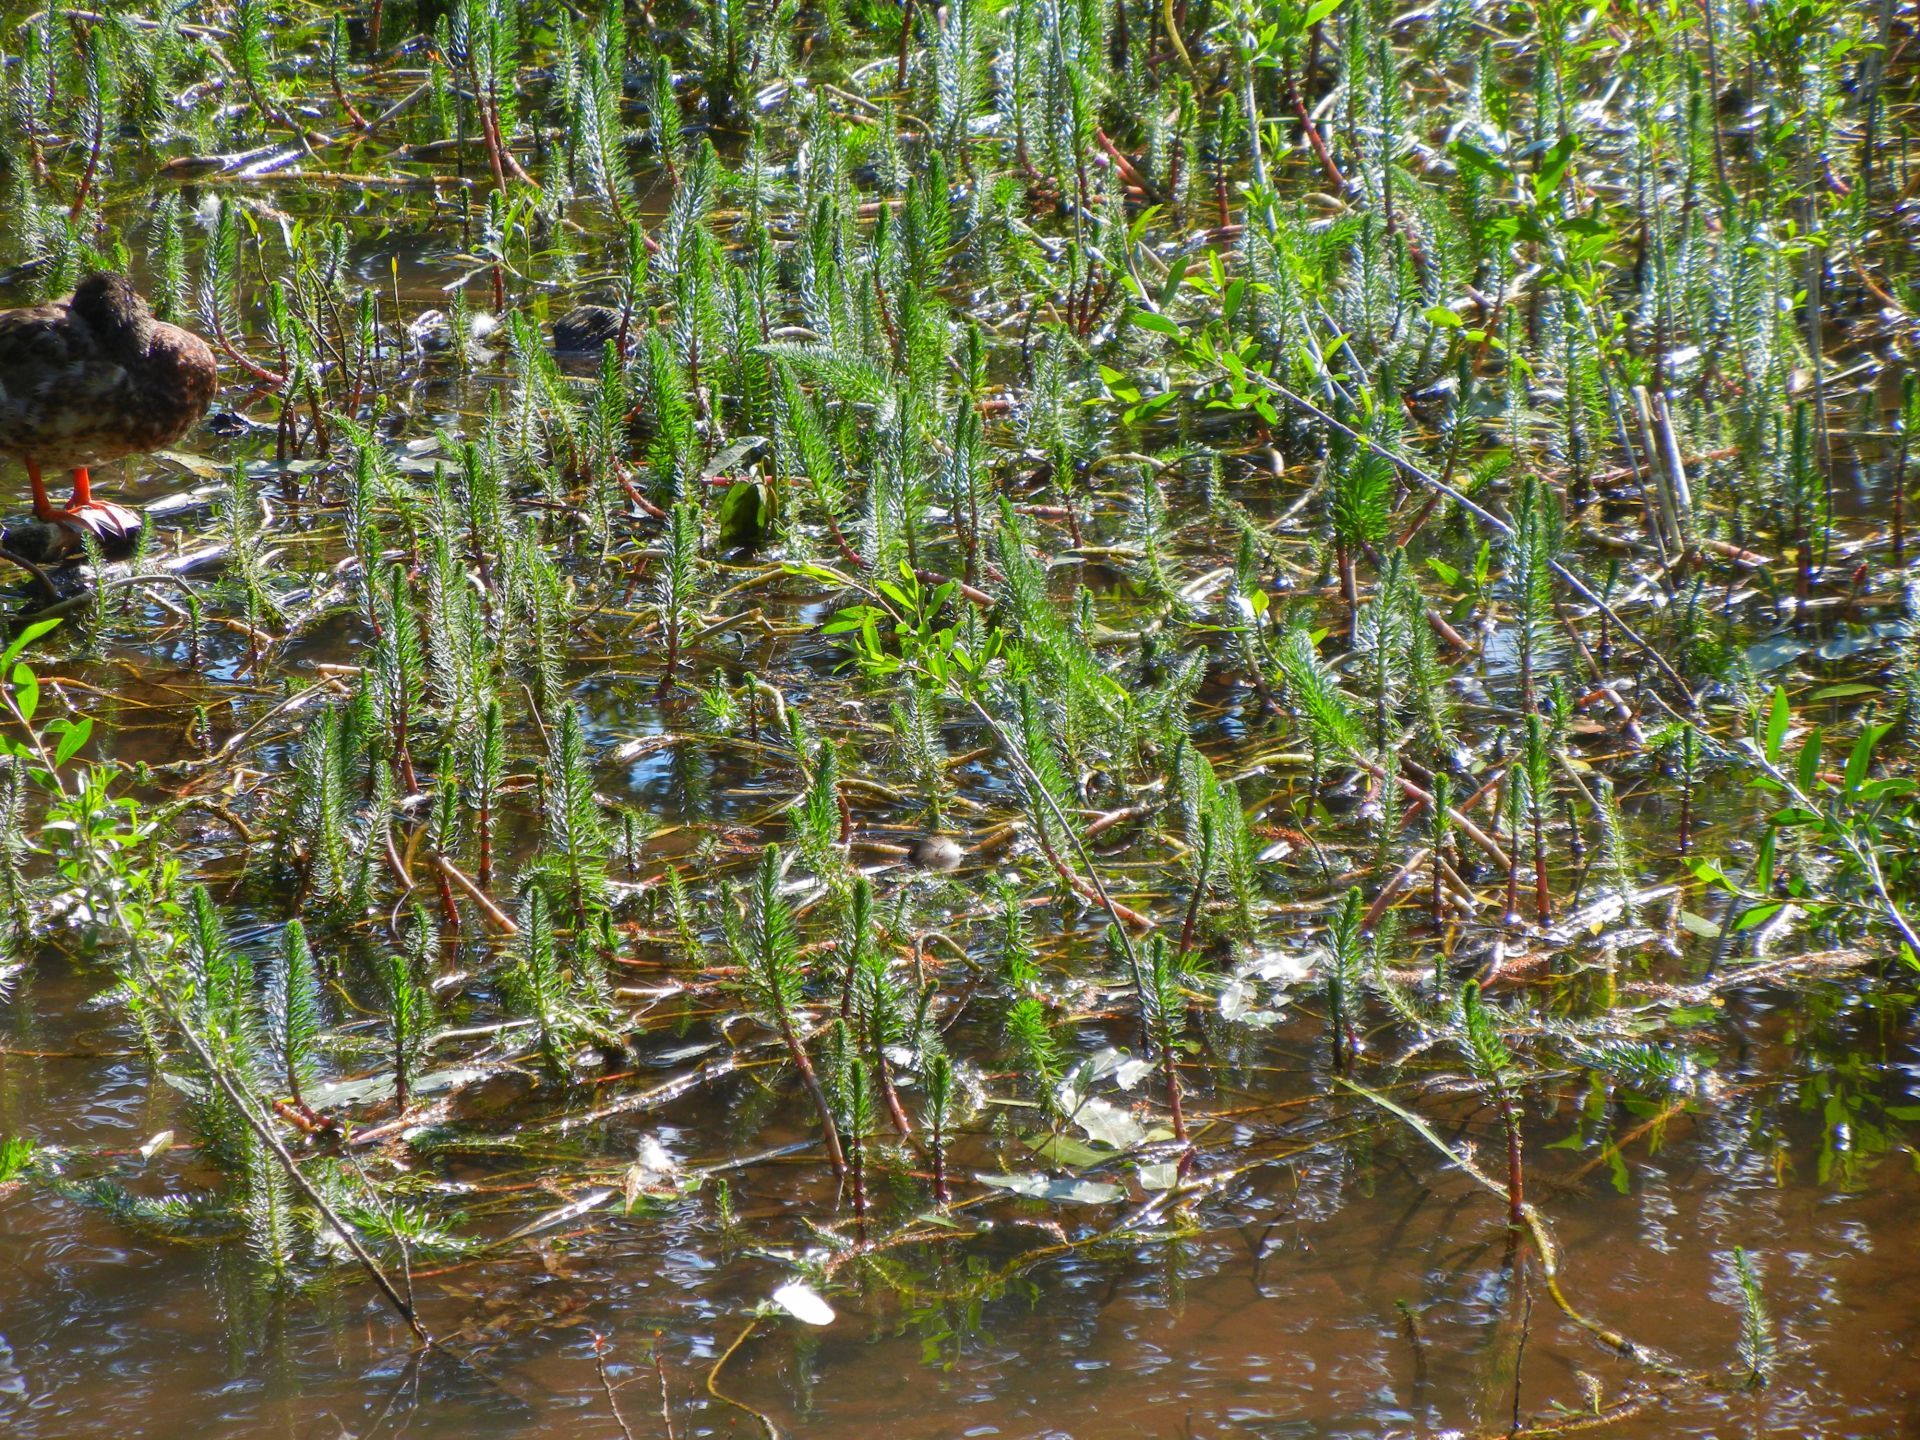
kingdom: Plantae
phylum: Tracheophyta
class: Magnoliopsida
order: Lamiales
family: Plantaginaceae
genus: Hippuris
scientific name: Hippuris vulgaris
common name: Mare's-tail
